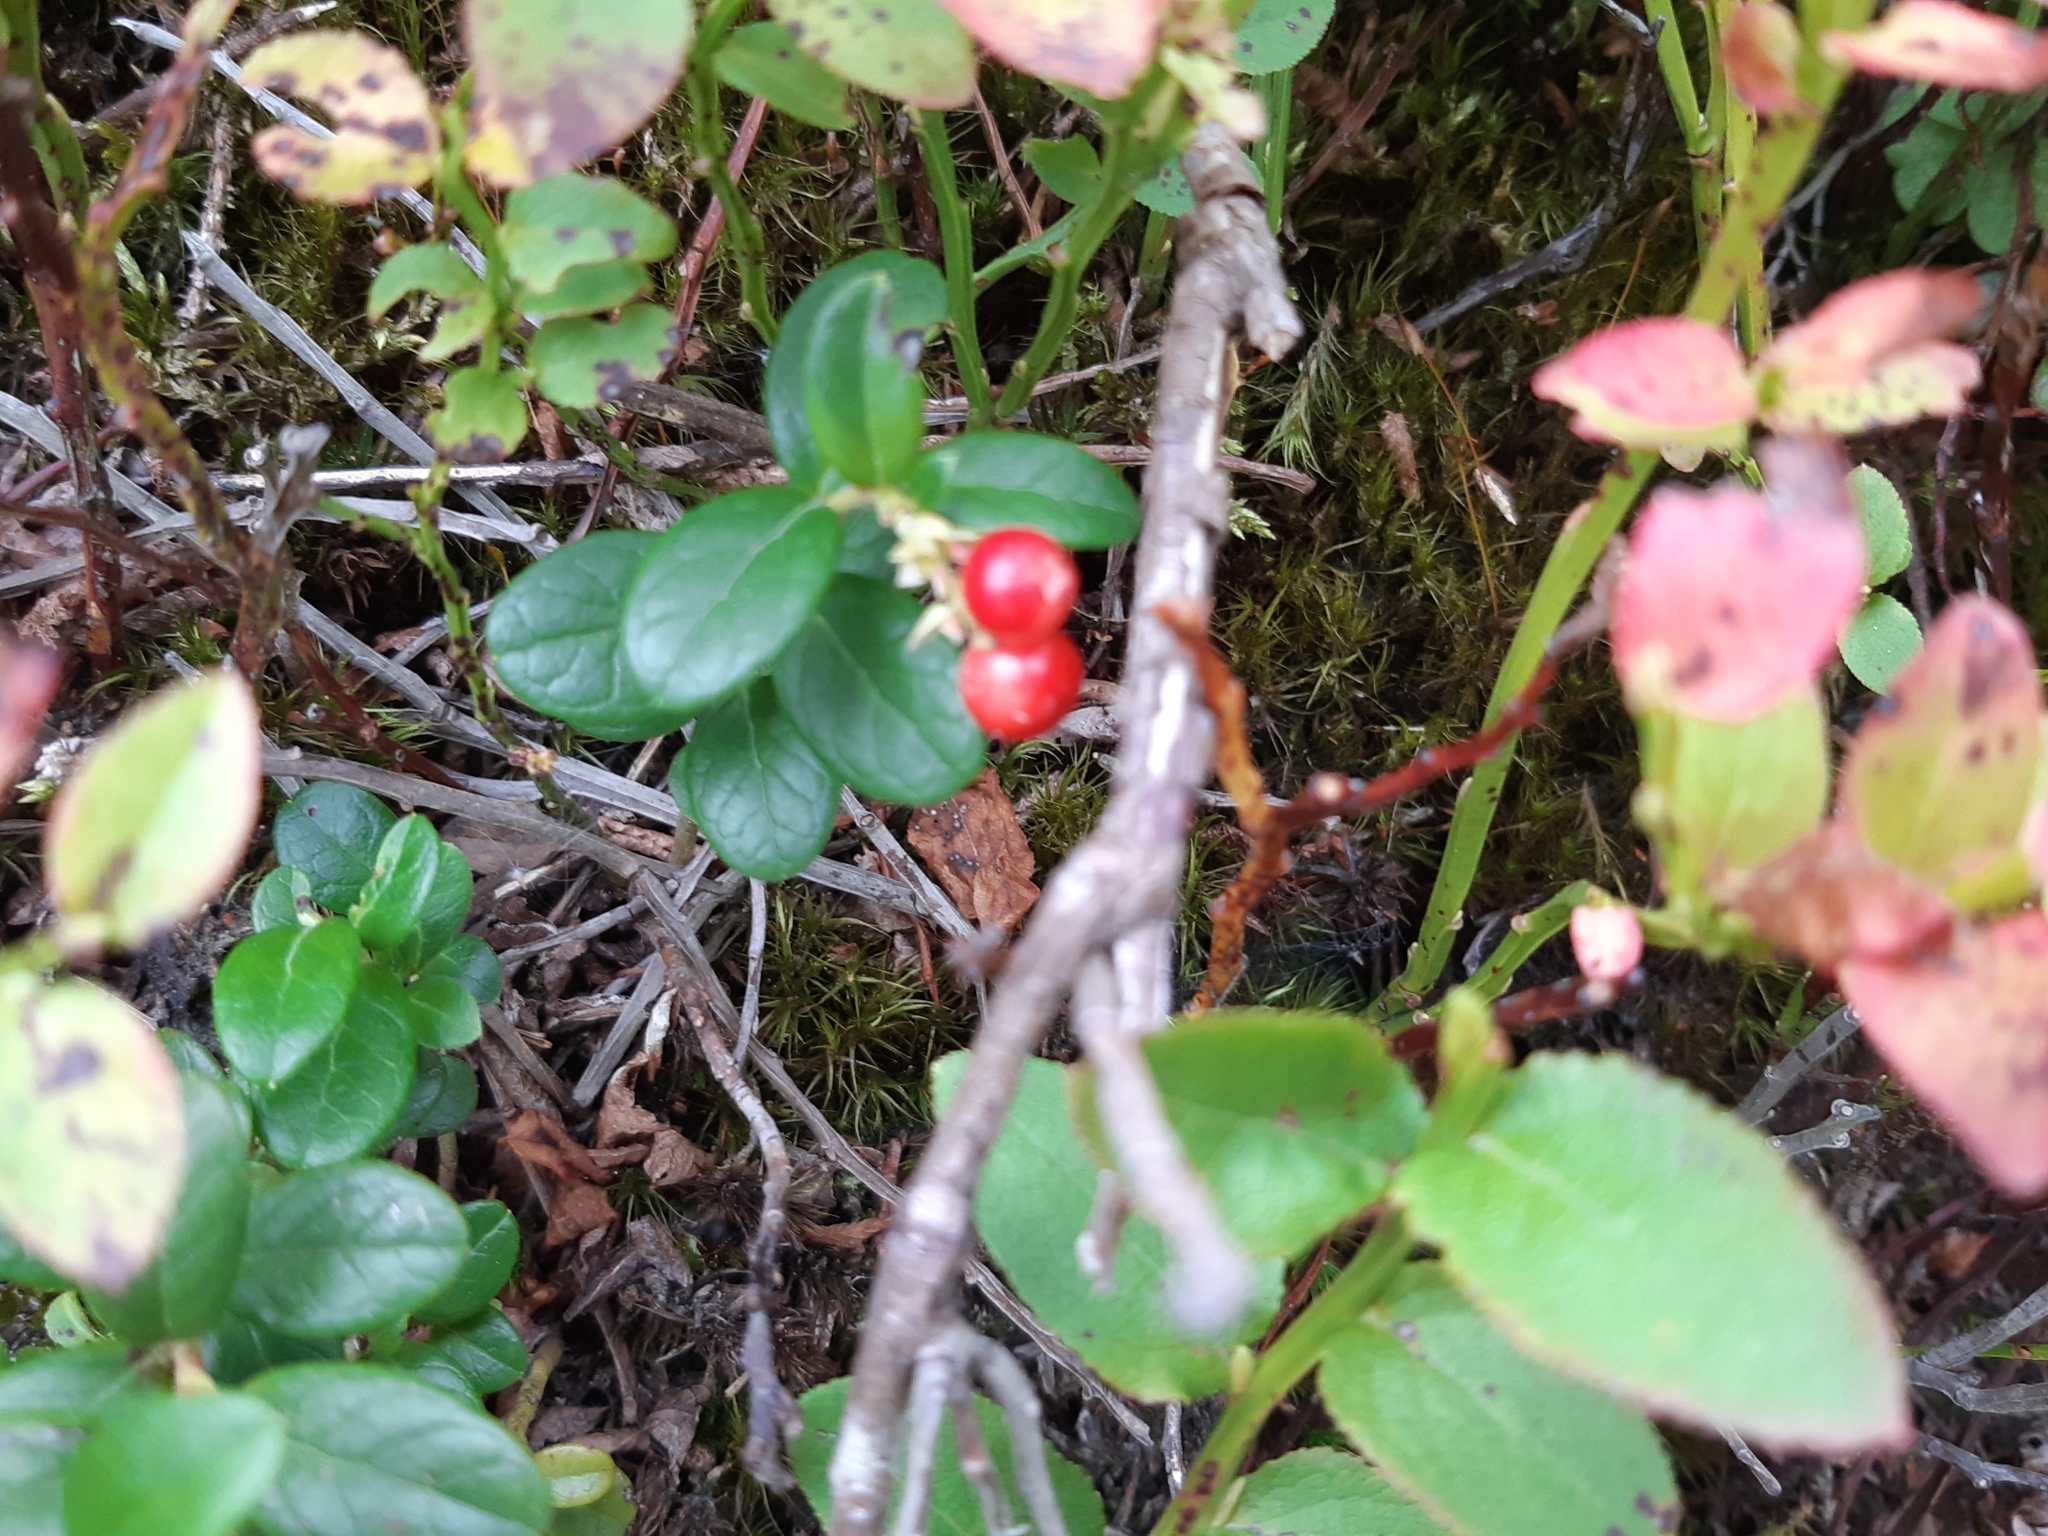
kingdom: Plantae
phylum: Tracheophyta
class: Magnoliopsida
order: Ericales
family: Ericaceae
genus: Vaccinium
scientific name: Vaccinium vitis-idaea
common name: Cowberry
